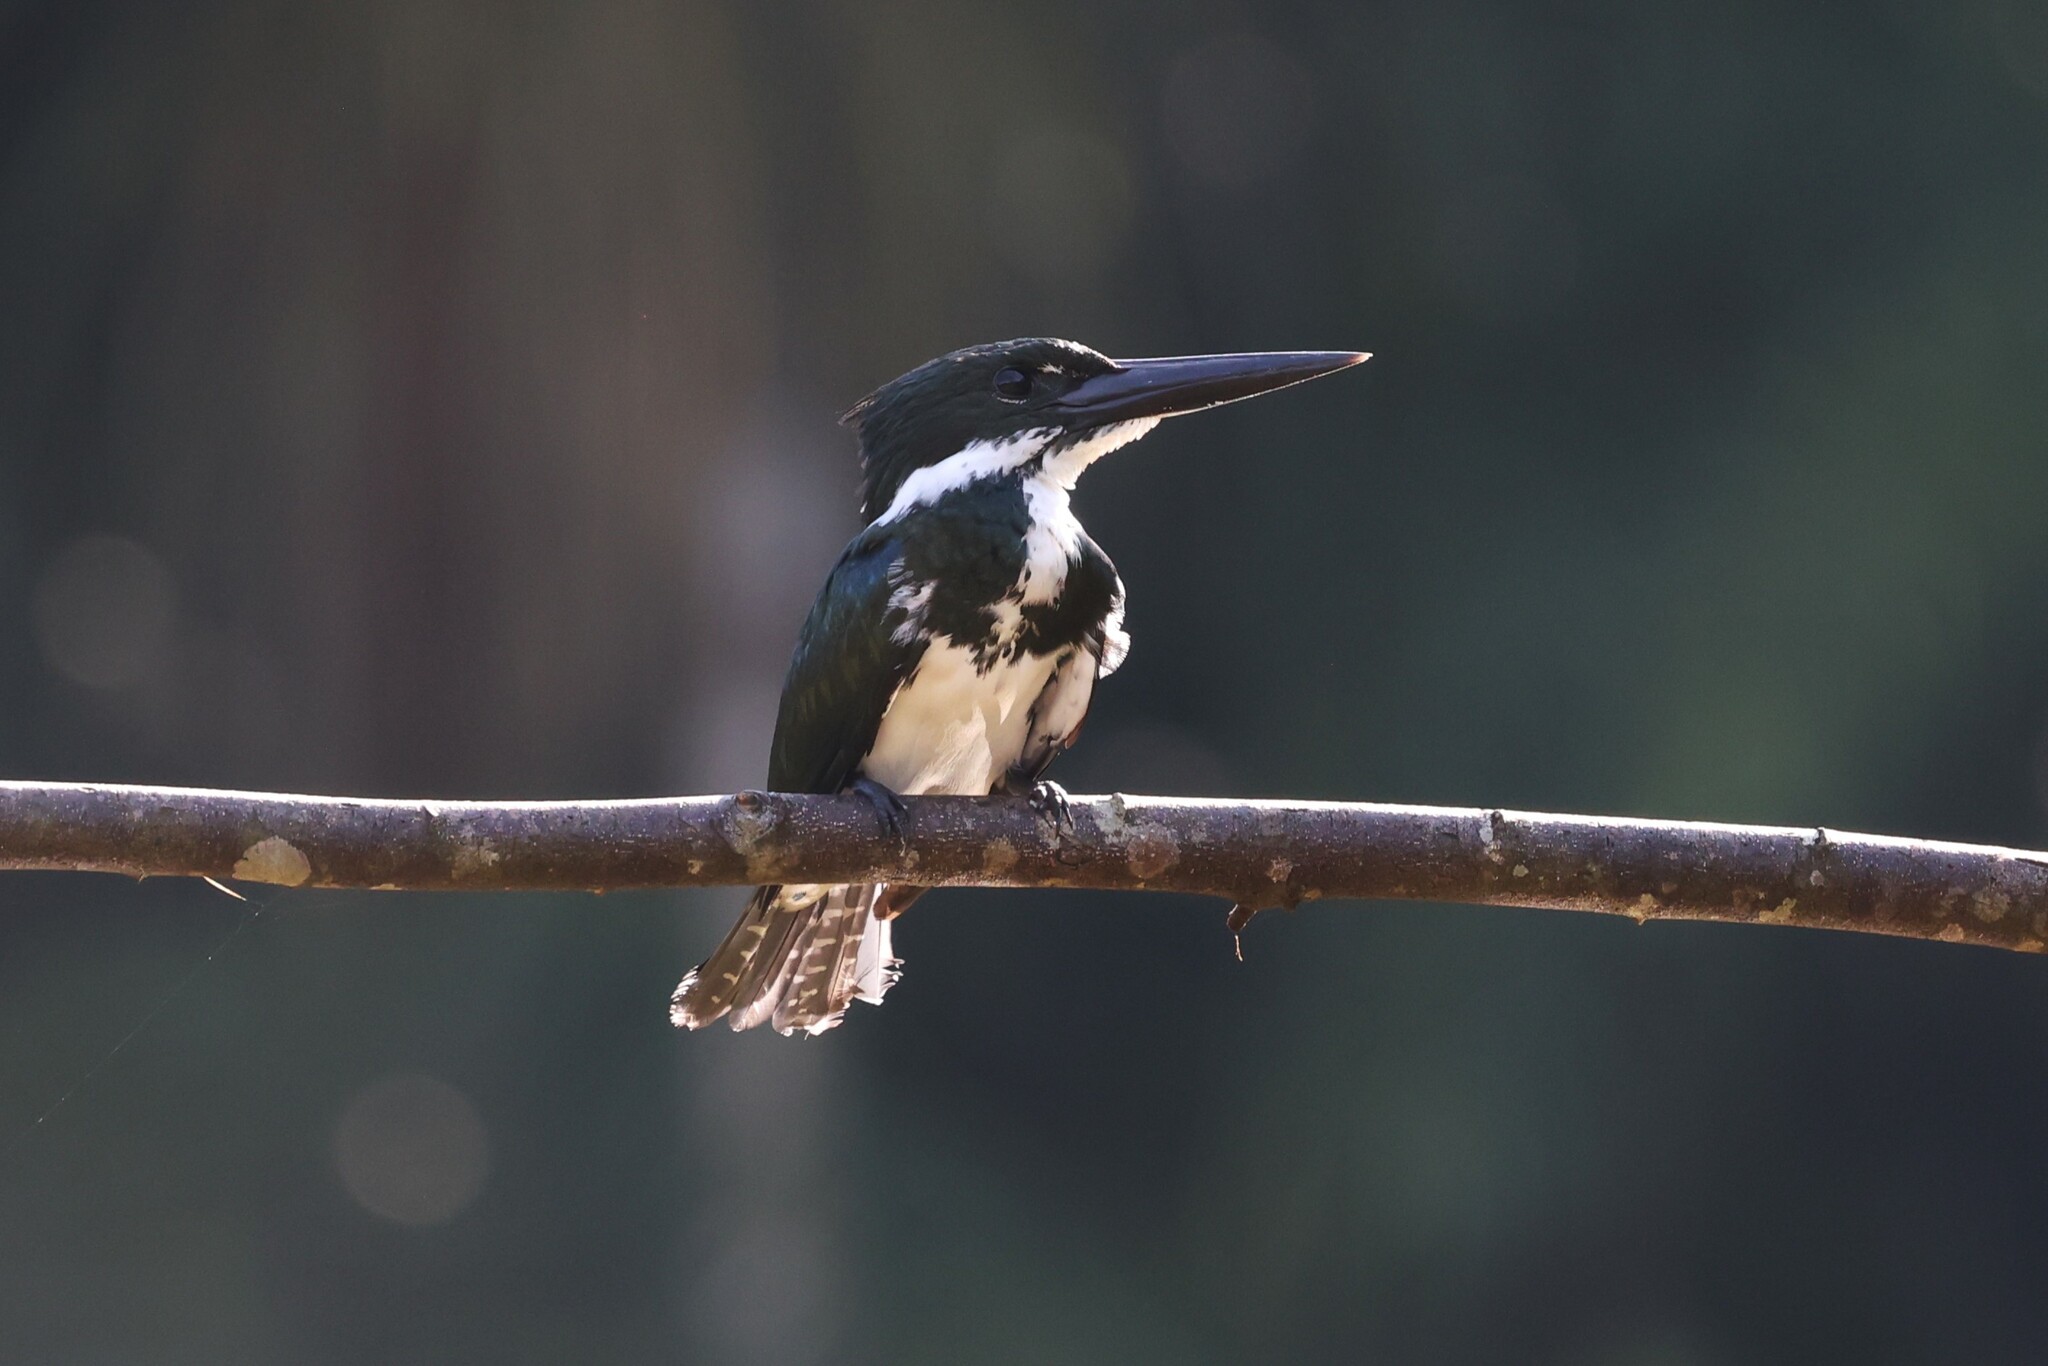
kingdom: Animalia
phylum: Chordata
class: Aves
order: Coraciiformes
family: Alcedinidae
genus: Chloroceryle
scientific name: Chloroceryle amazona
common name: Amazon kingfisher
